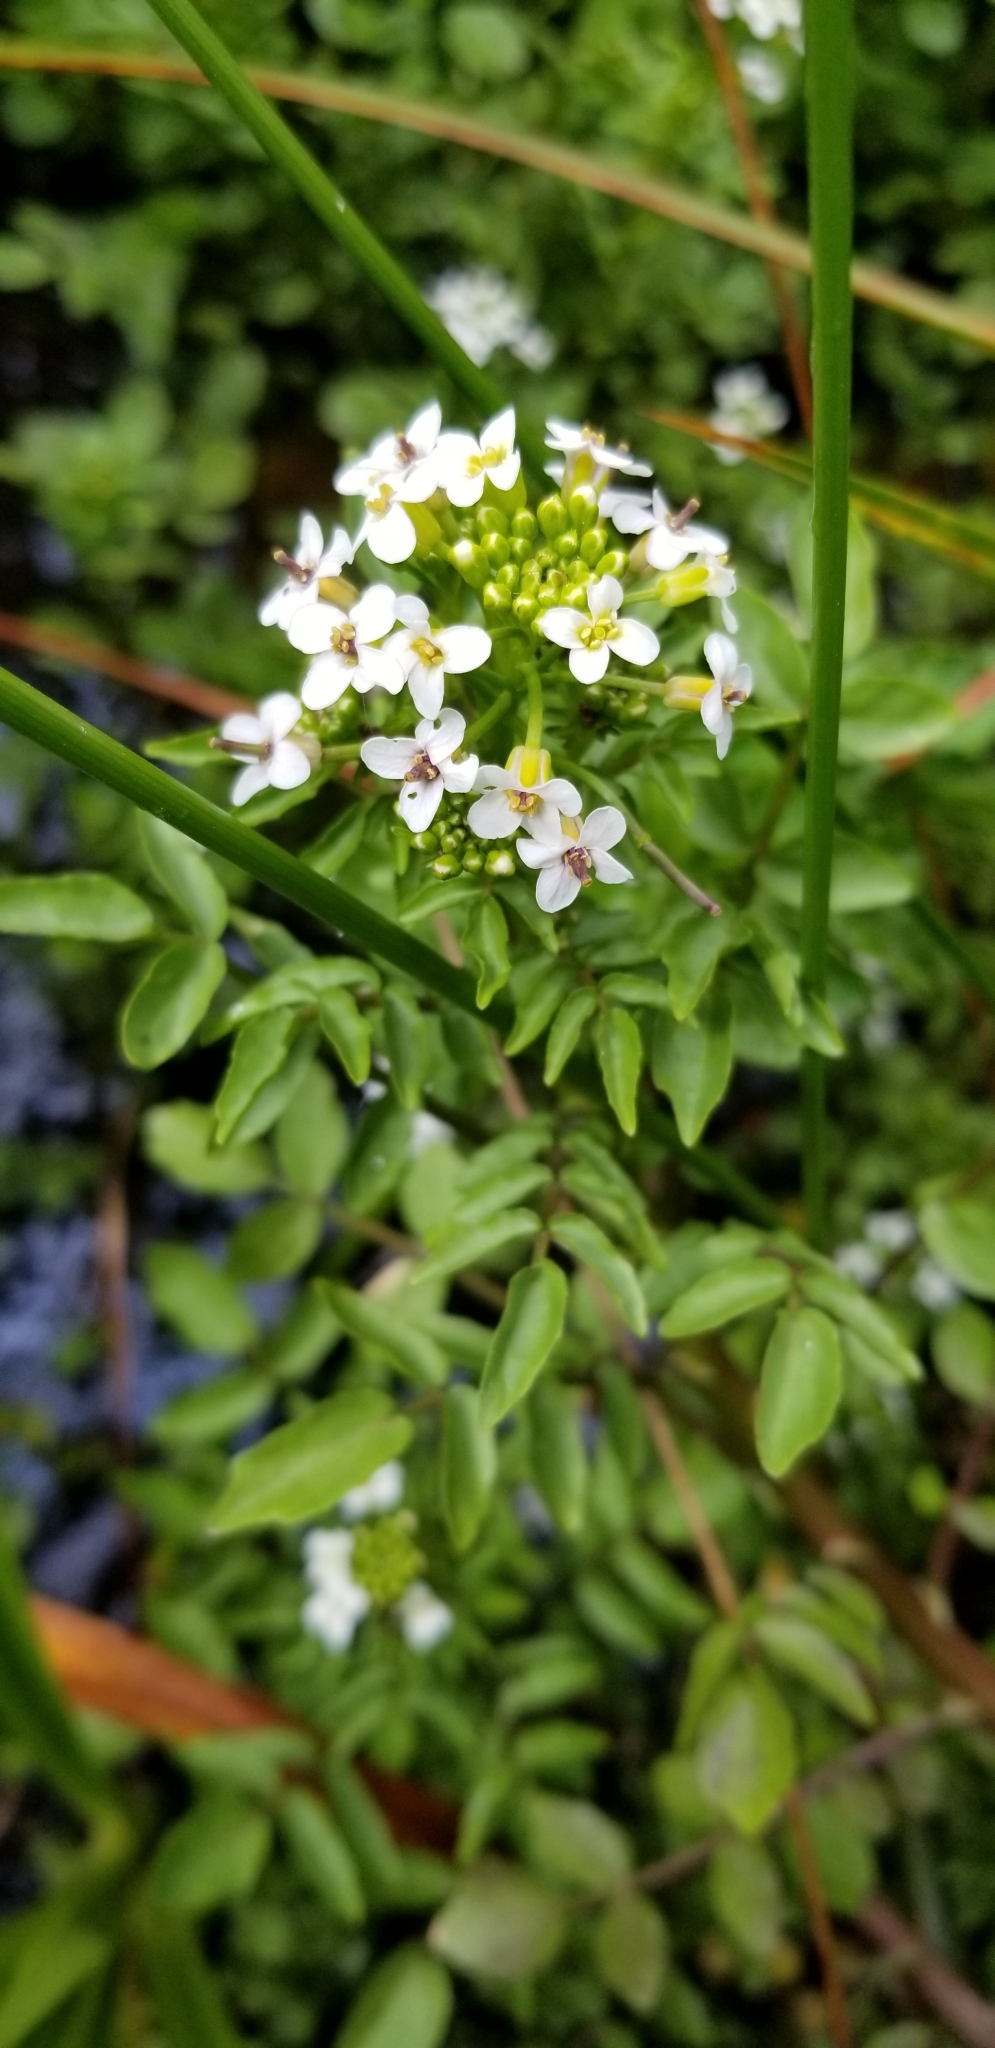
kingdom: Plantae
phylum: Tracheophyta
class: Magnoliopsida
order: Brassicales
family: Brassicaceae
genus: Nasturtium
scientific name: Nasturtium officinale
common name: Watercress
